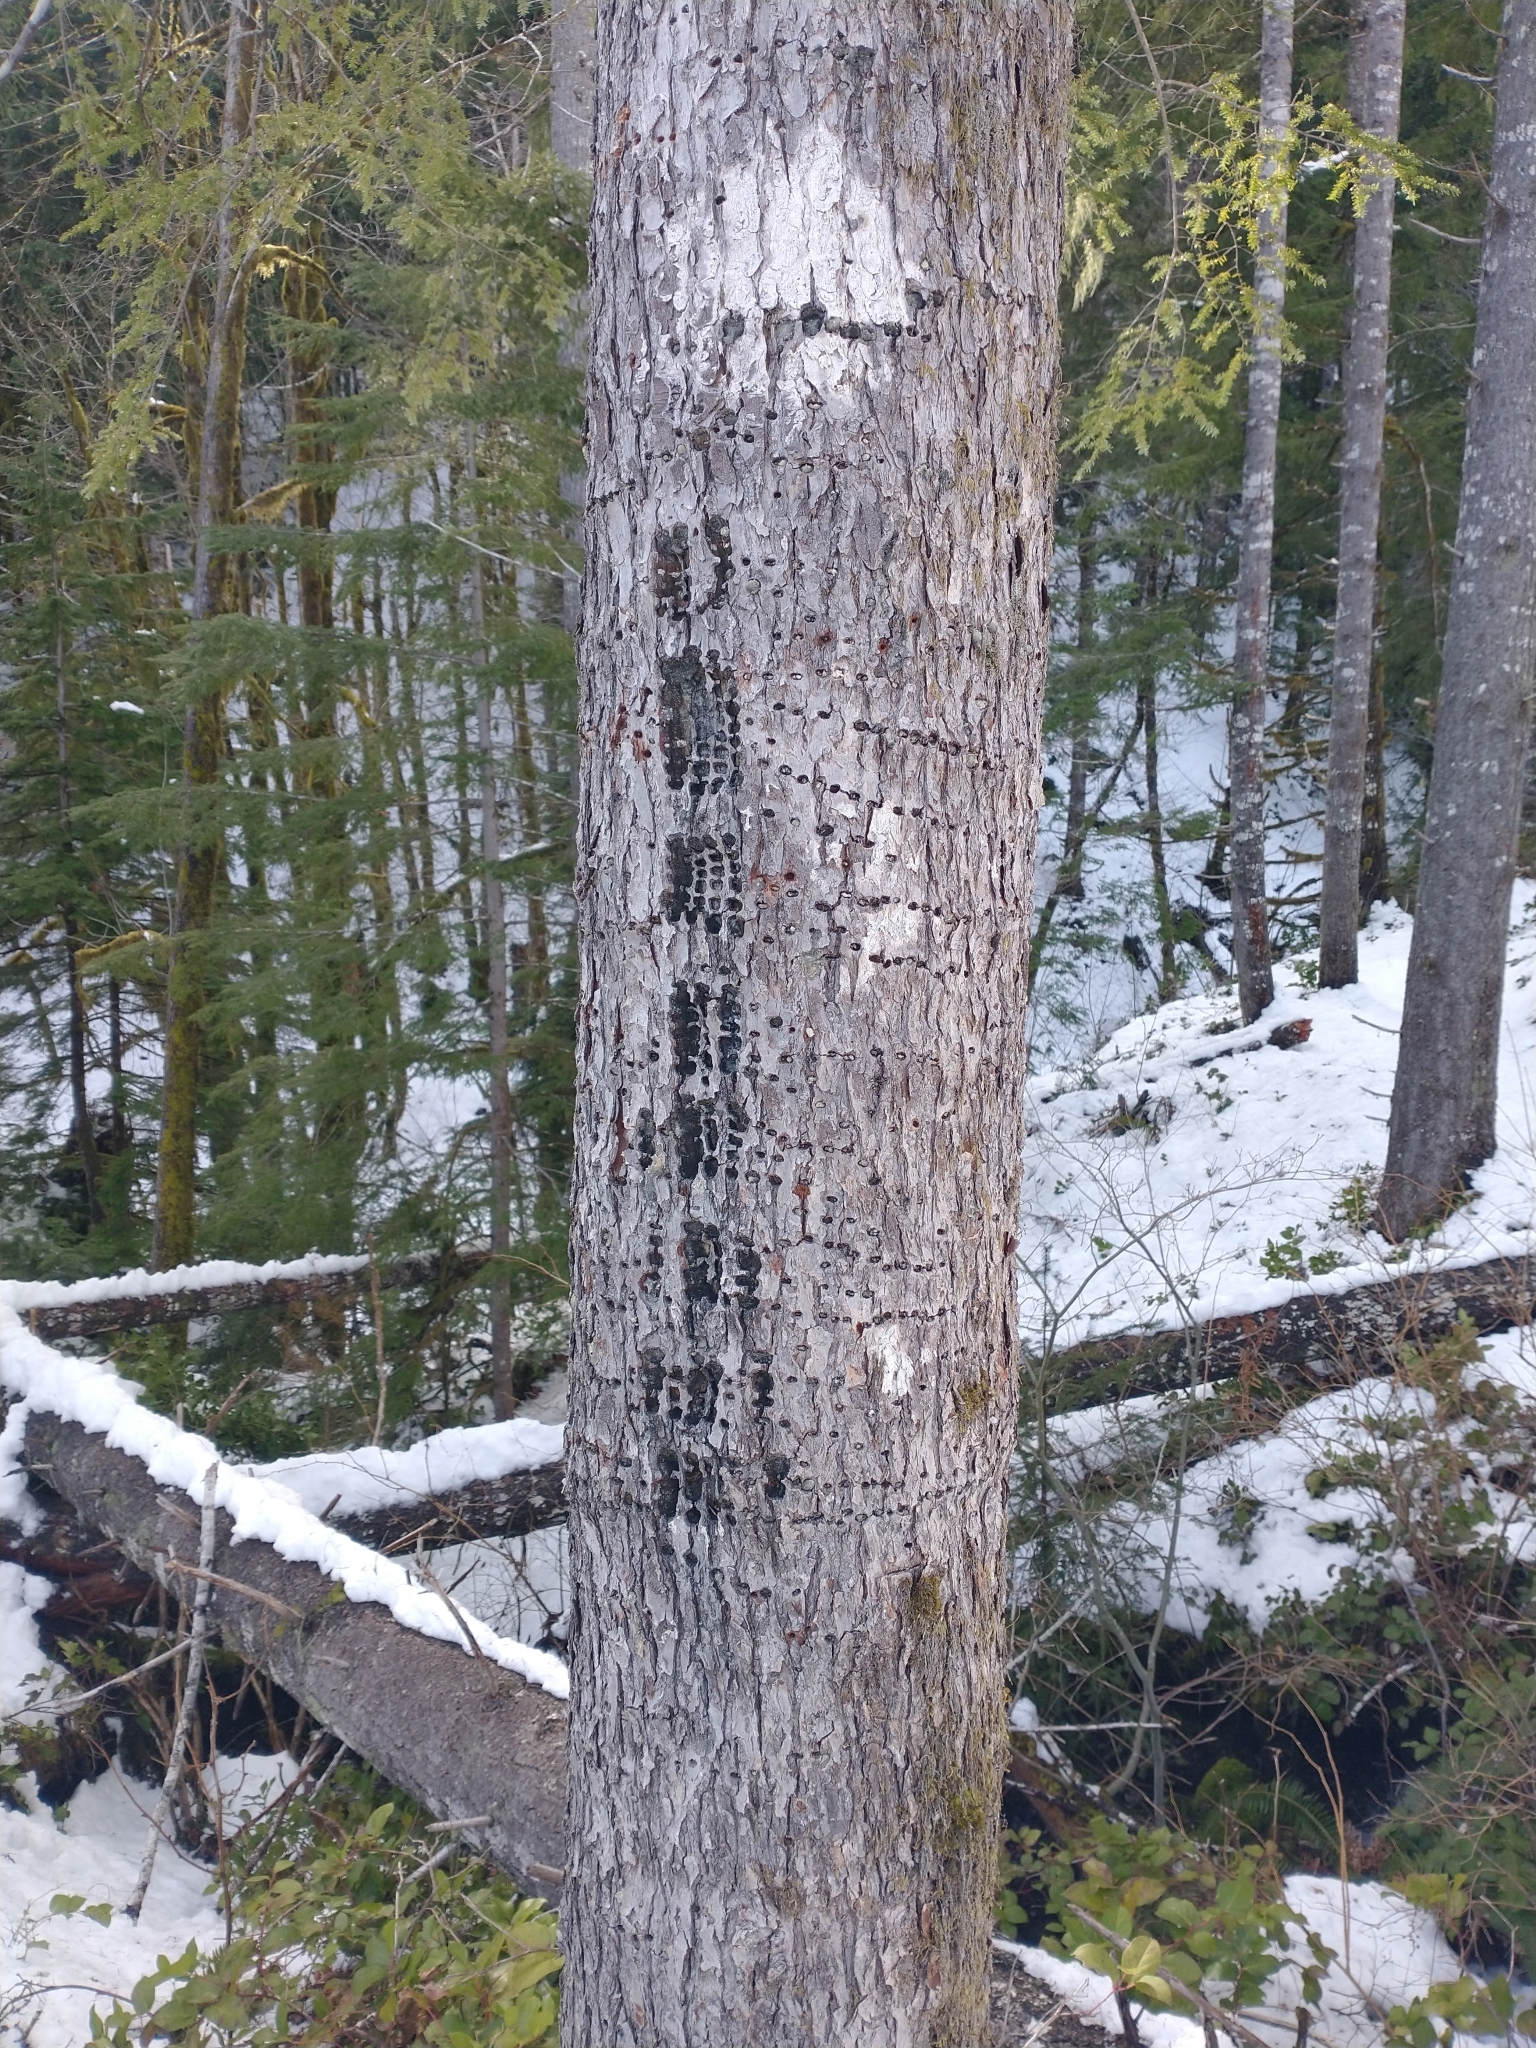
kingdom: Animalia
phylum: Chordata
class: Aves
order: Piciformes
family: Picidae
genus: Sphyrapicus
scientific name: Sphyrapicus ruber
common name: Red-breasted sapsucker
